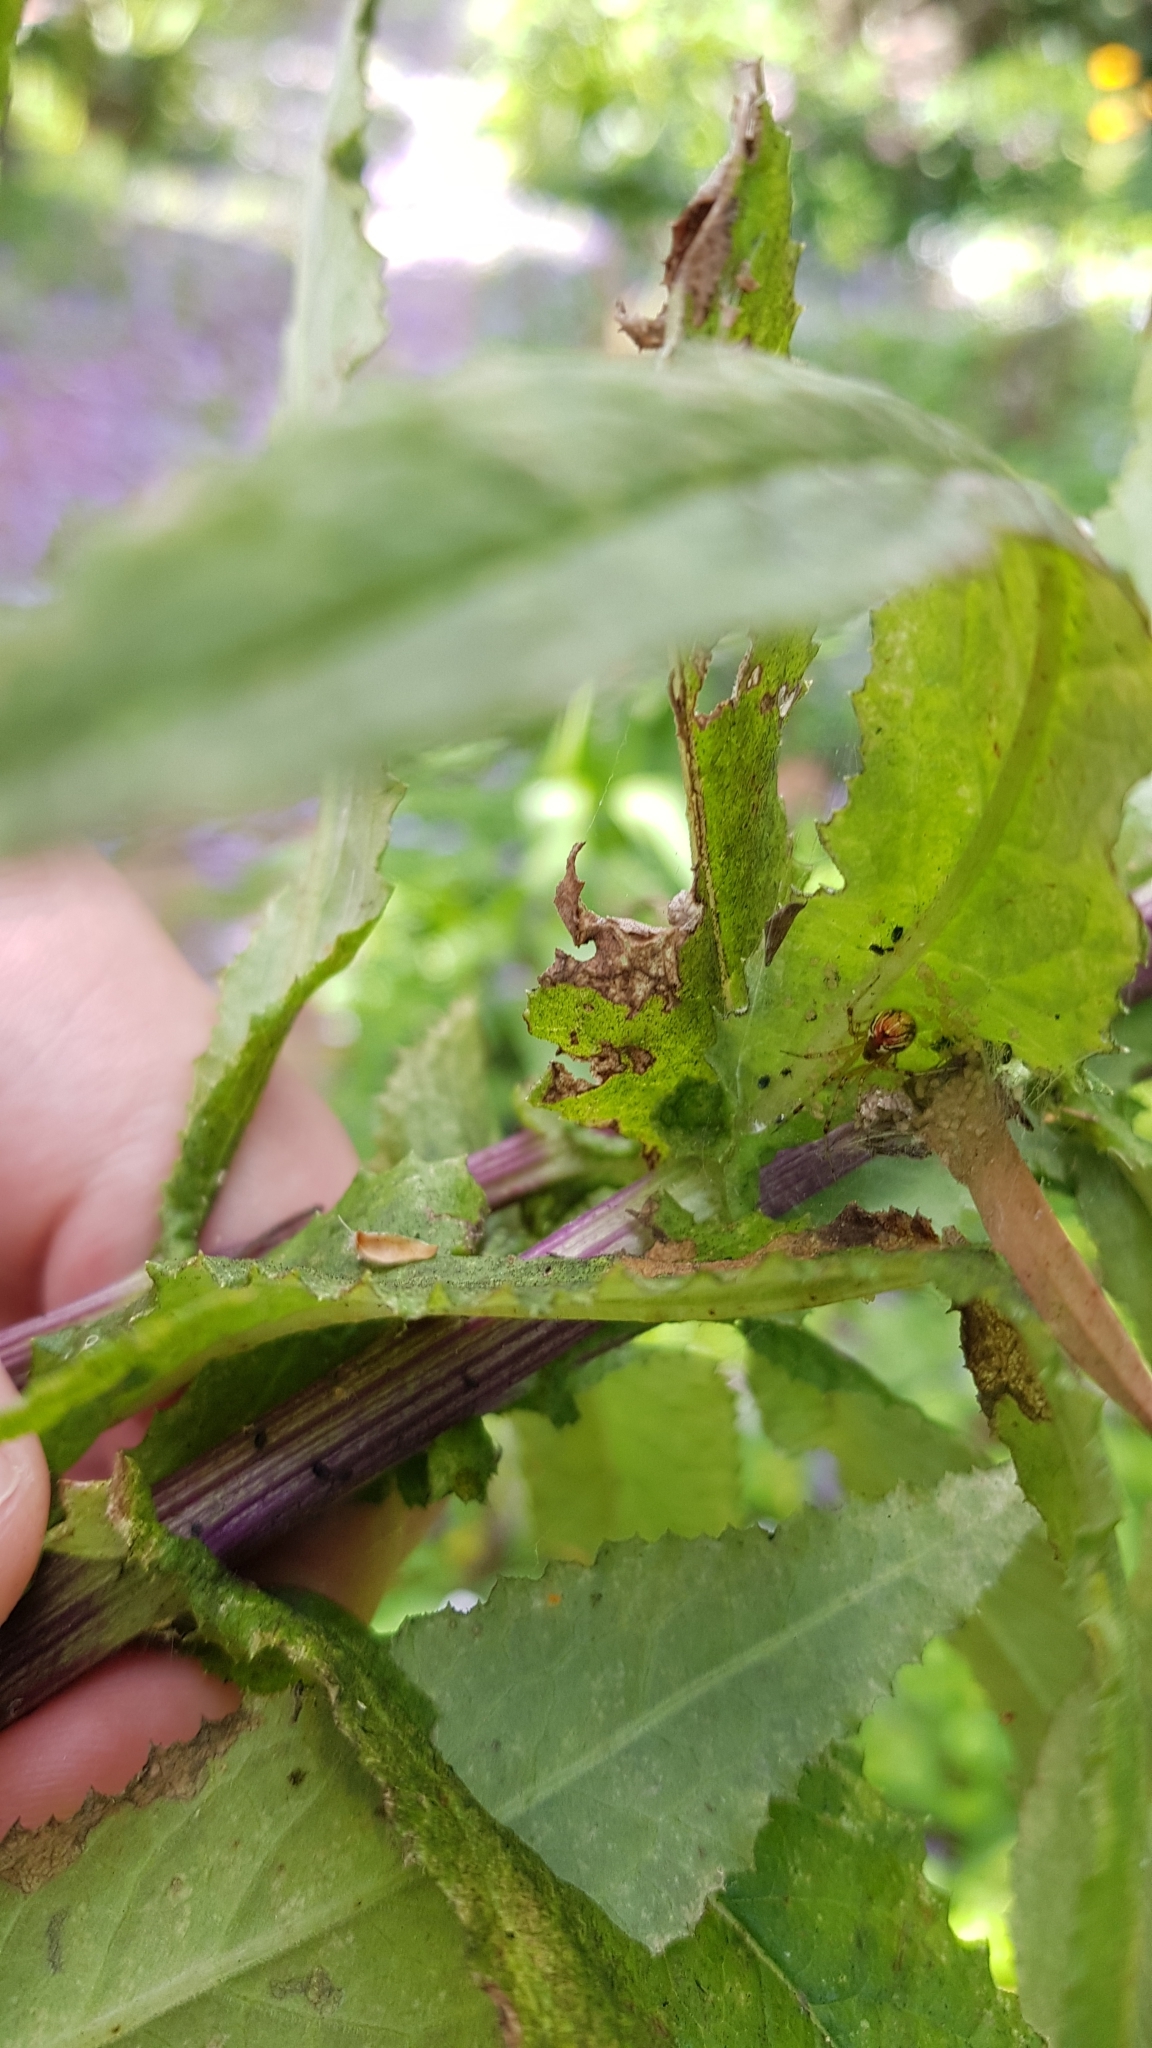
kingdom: Animalia
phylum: Arthropoda
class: Arachnida
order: Araneae
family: Theridiidae
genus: Theridion
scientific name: Theridion pyramidale
